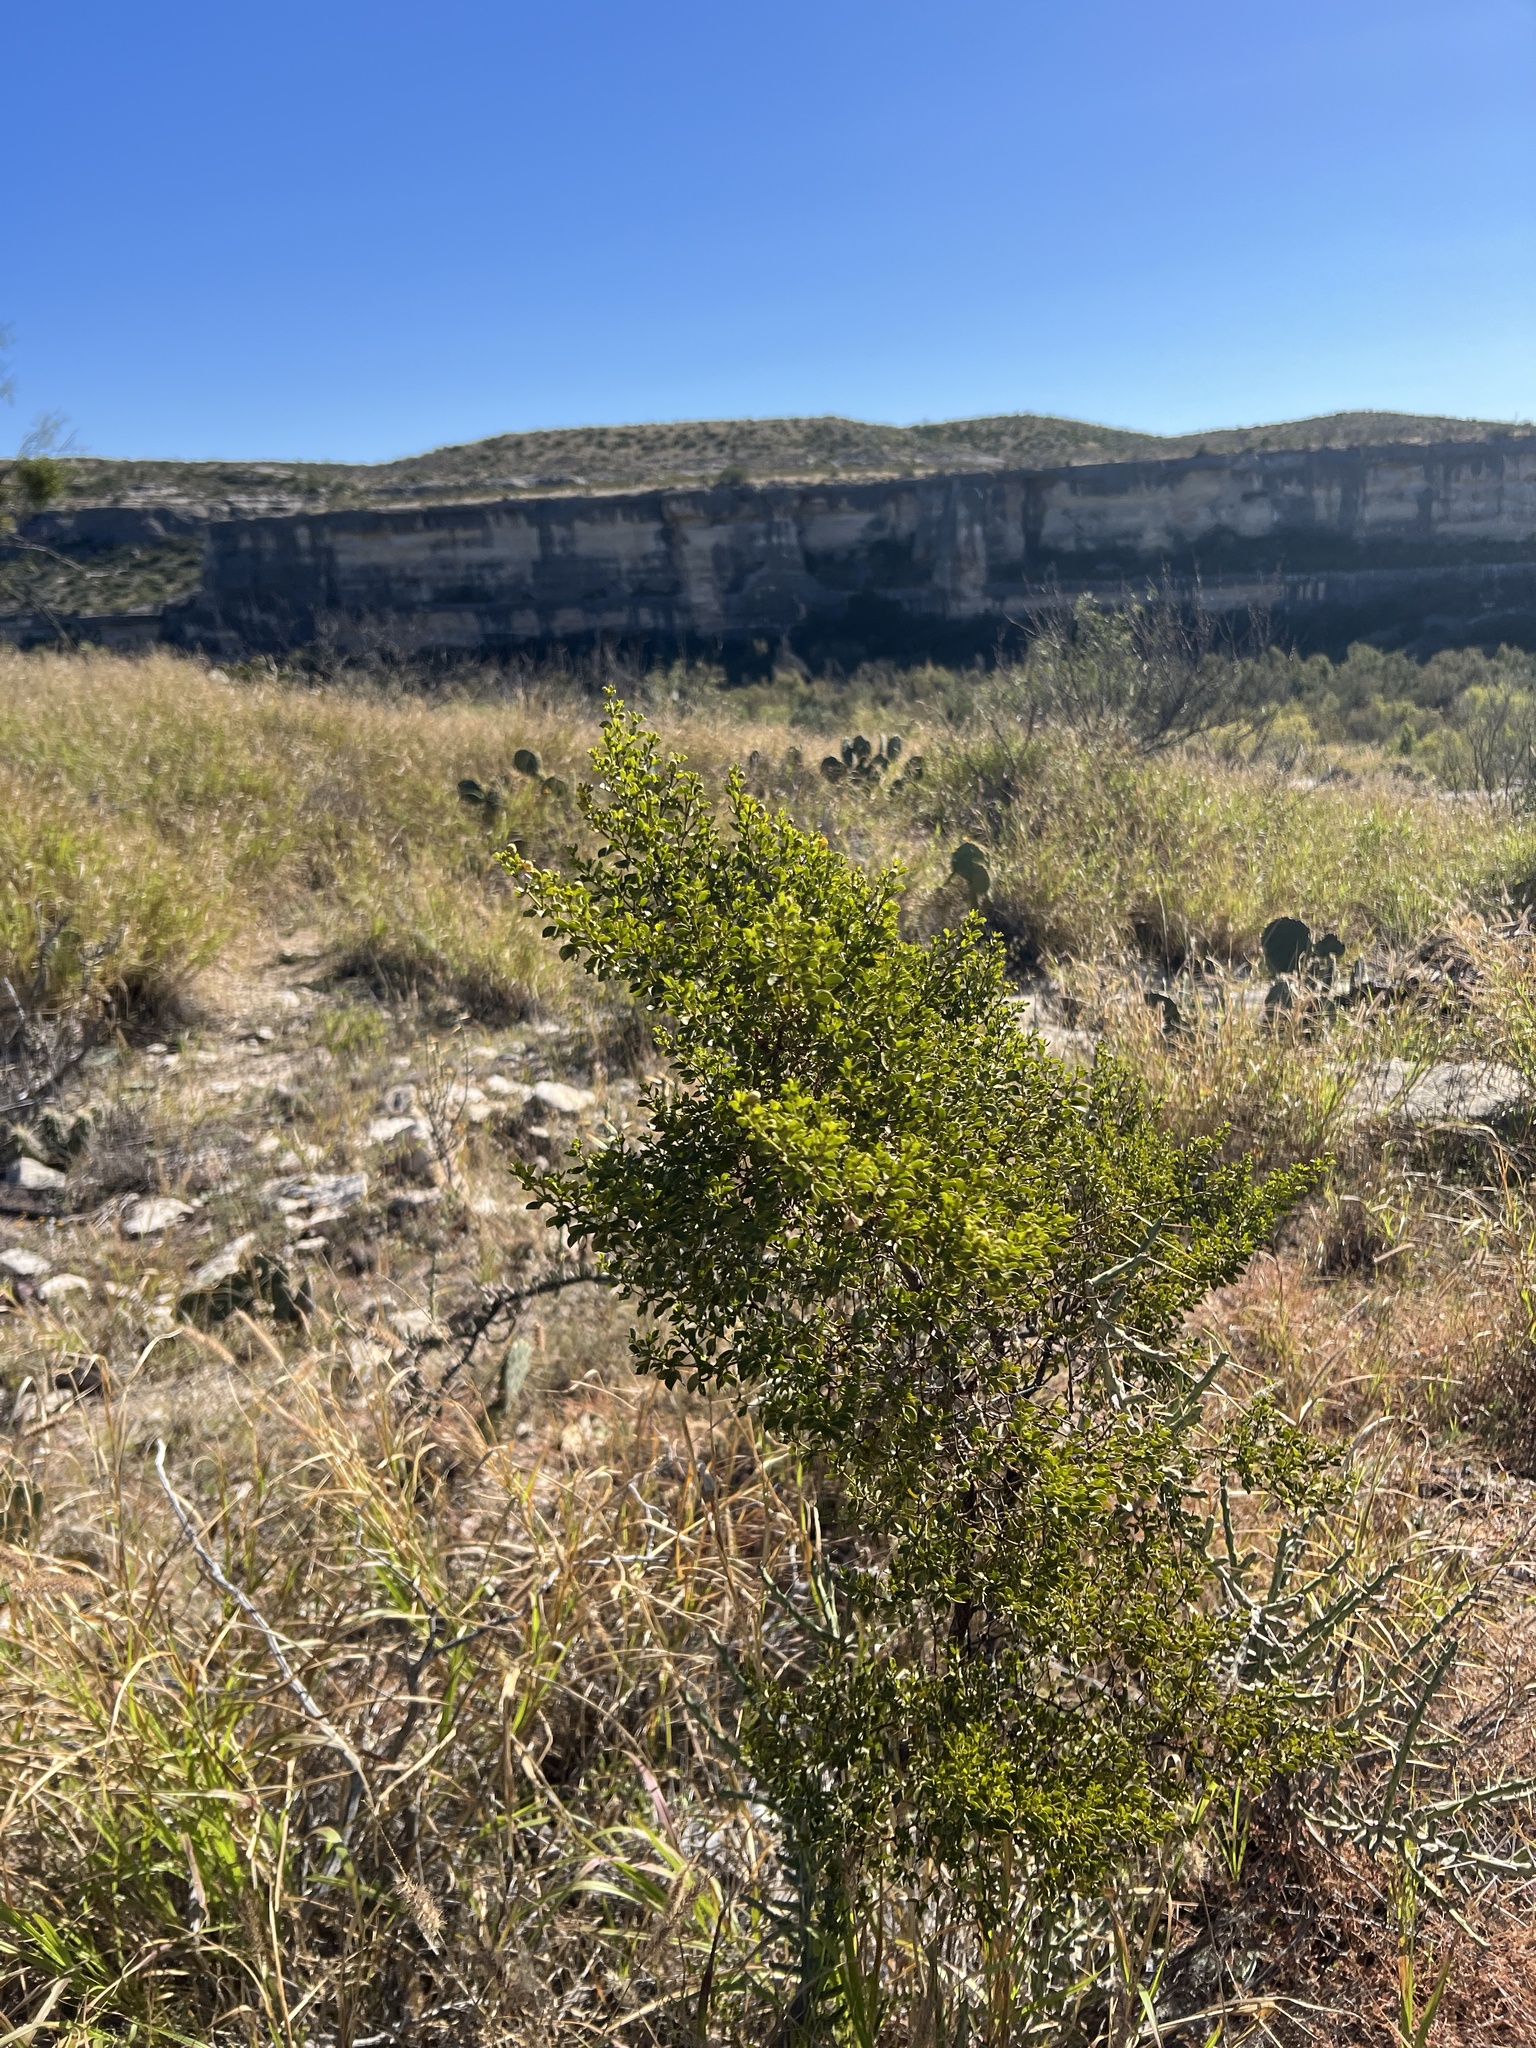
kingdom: Plantae
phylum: Tracheophyta
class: Magnoliopsida
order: Zygophyllales
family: Zygophyllaceae
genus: Larrea
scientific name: Larrea tridentata
